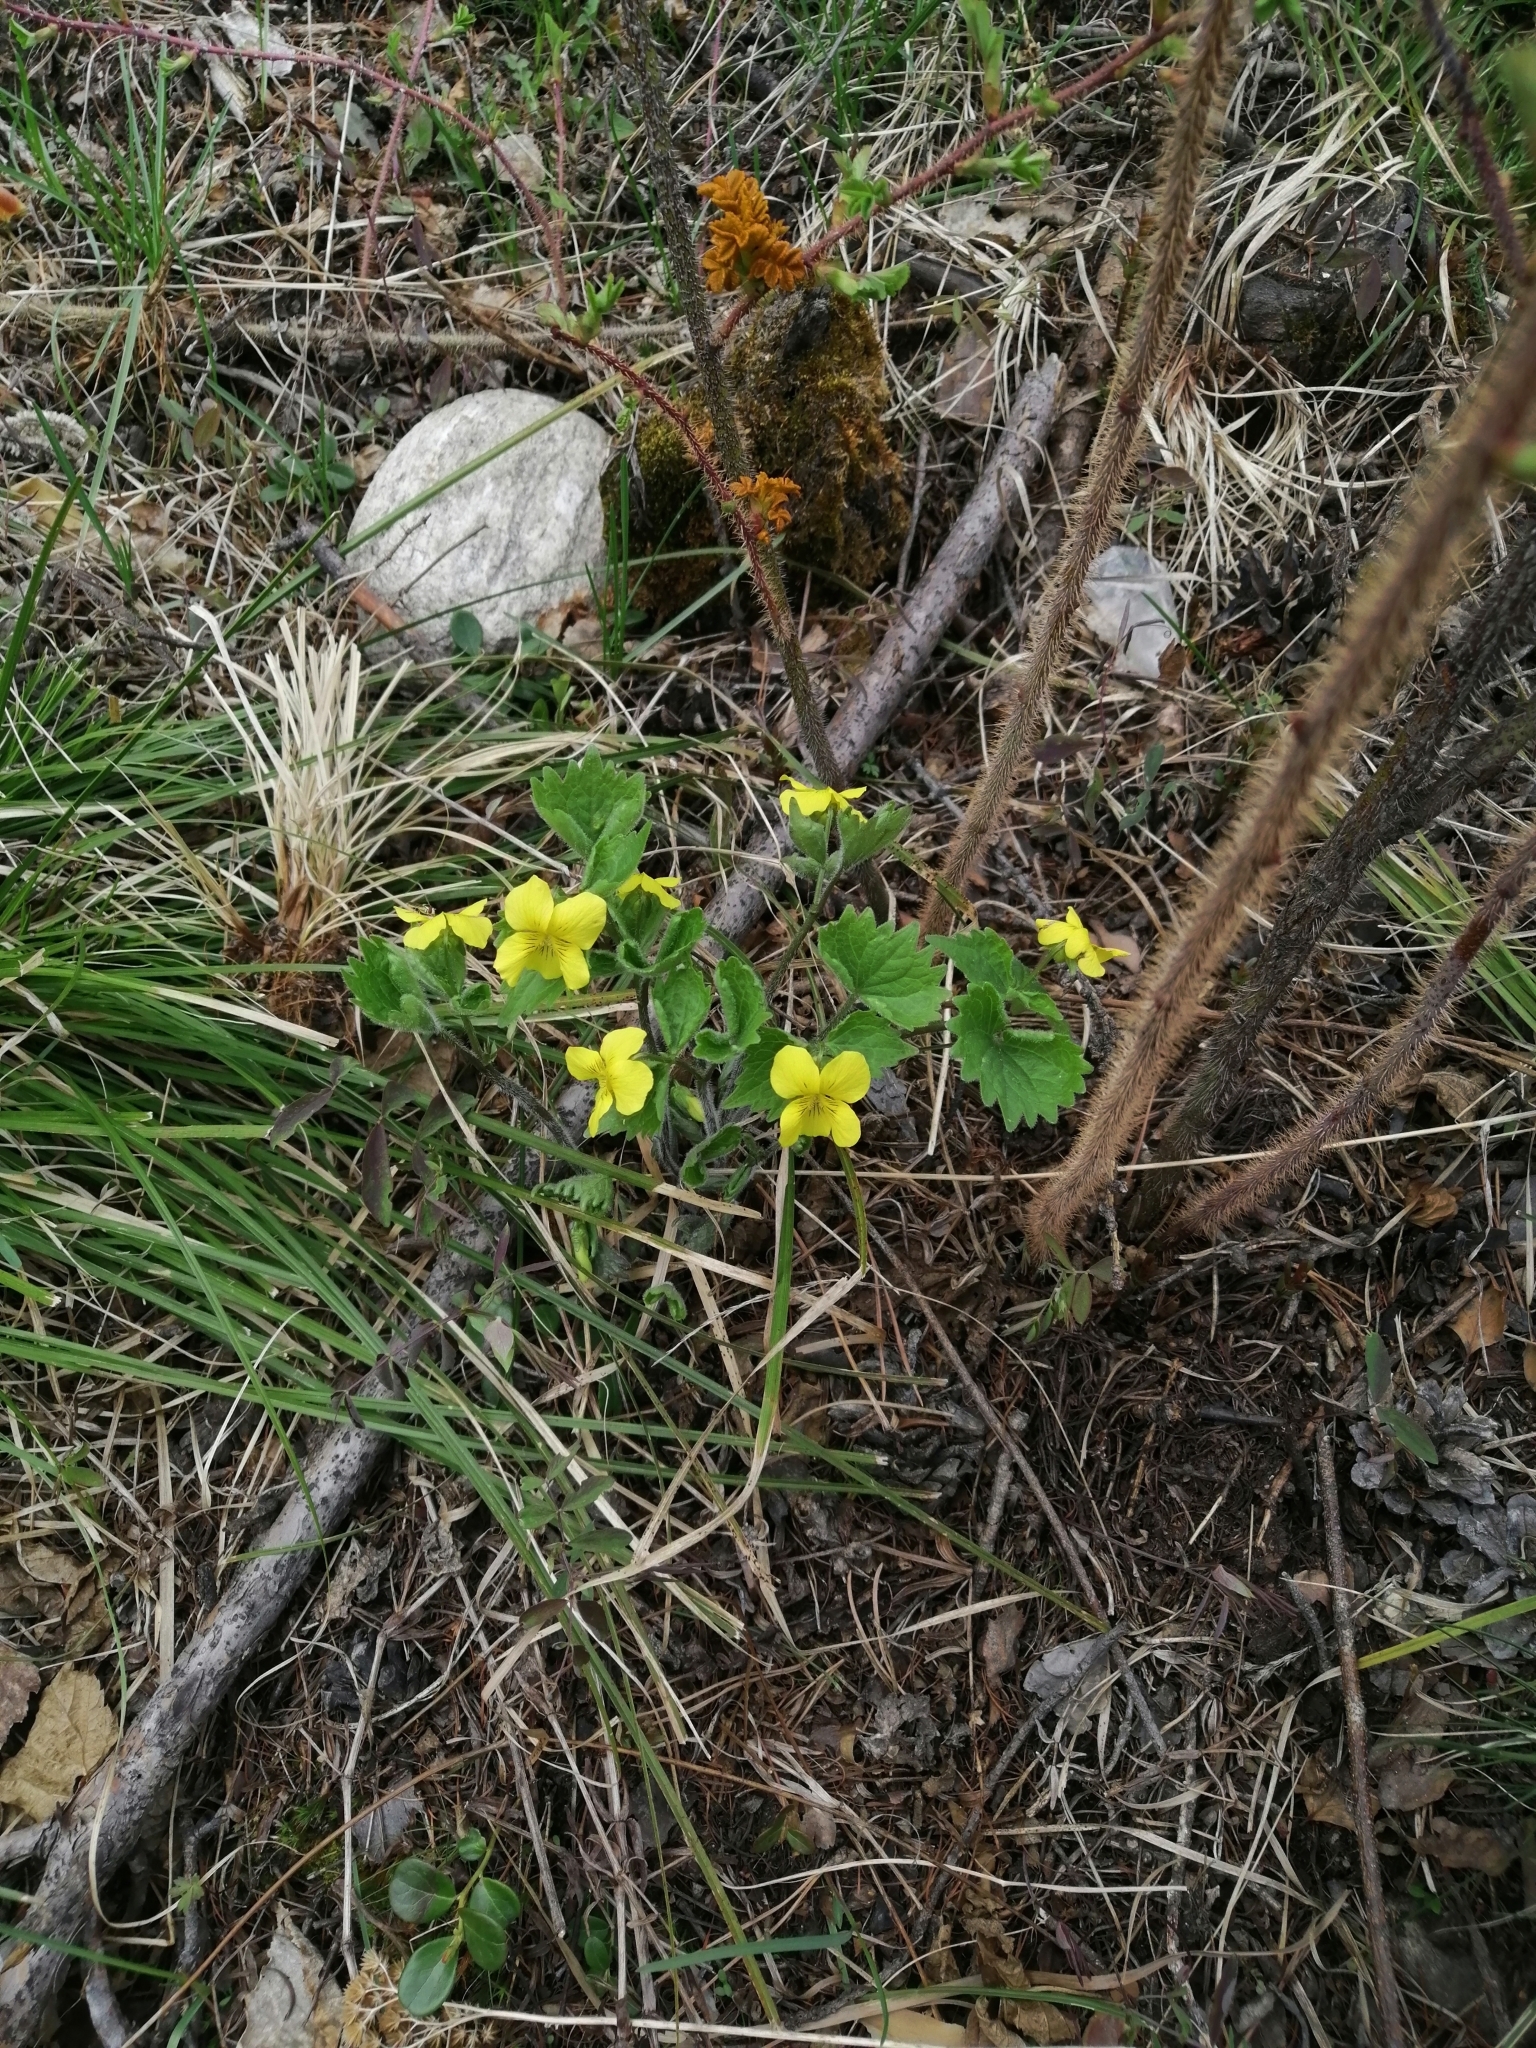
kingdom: Plantae
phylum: Tracheophyta
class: Magnoliopsida
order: Malpighiales
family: Violaceae
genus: Viola
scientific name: Viola uniflora
